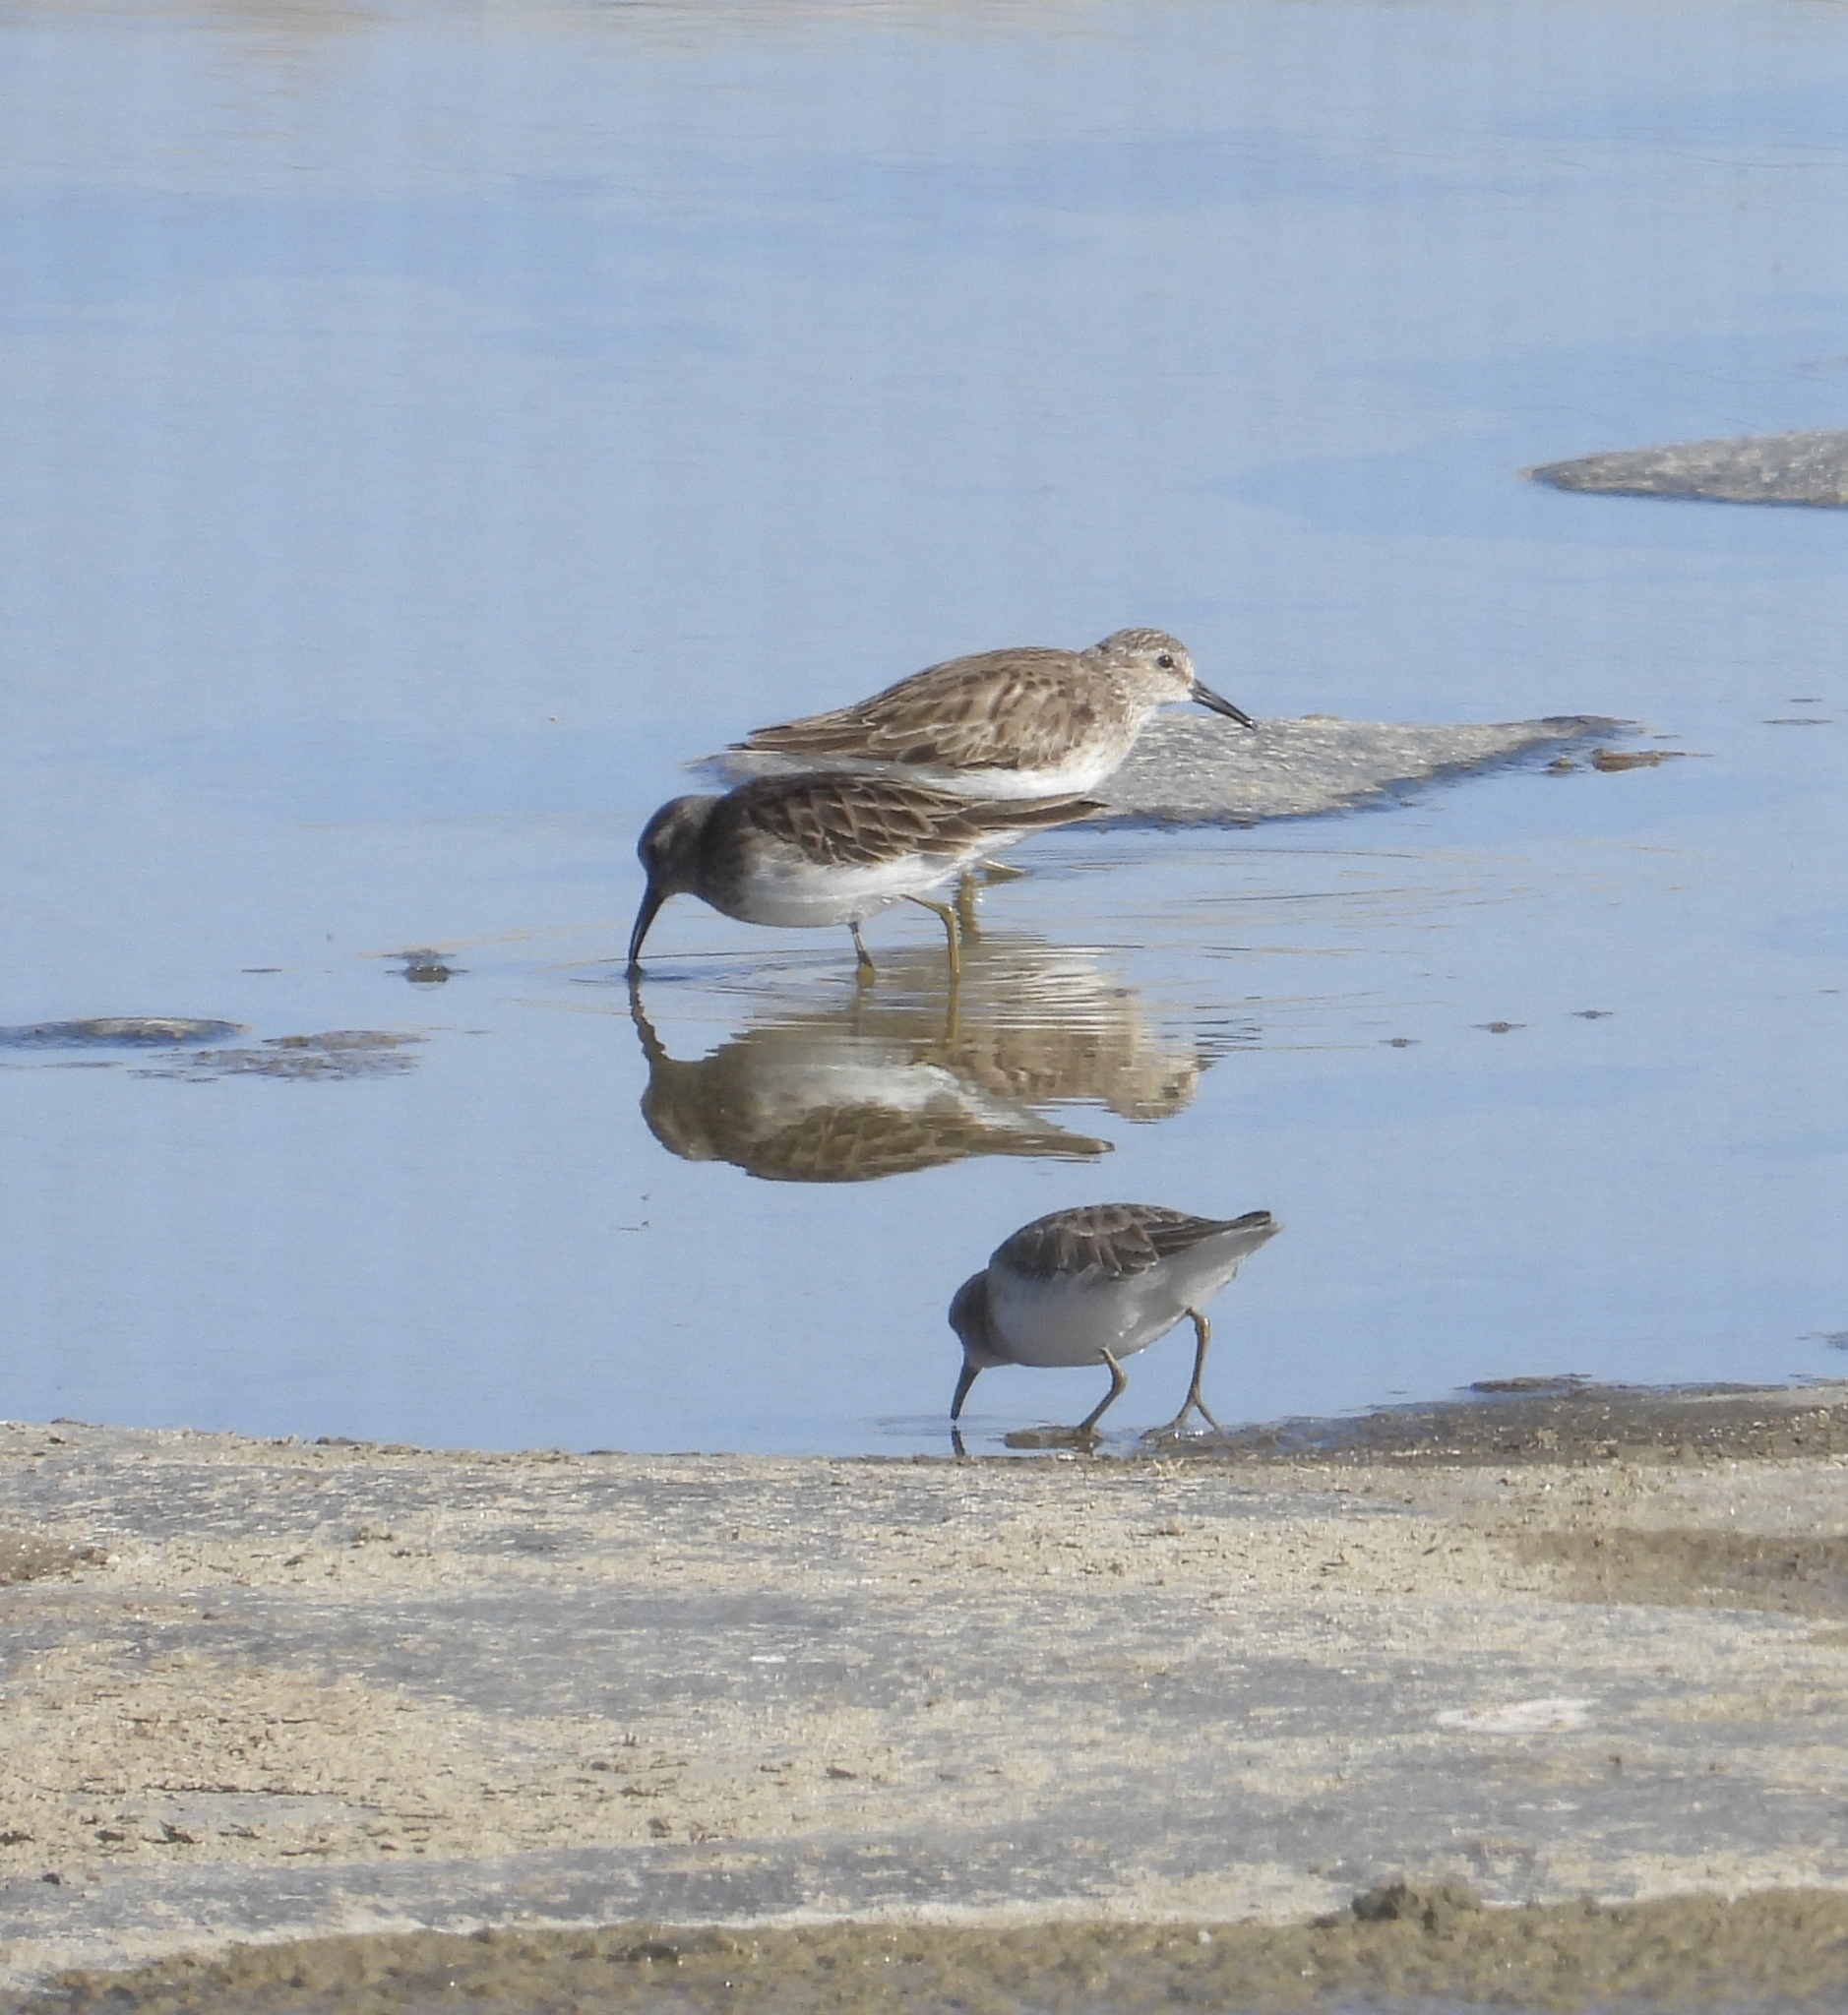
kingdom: Animalia
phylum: Chordata
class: Aves
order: Charadriiformes
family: Scolopacidae
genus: Calidris
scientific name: Calidris minutilla
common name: Least sandpiper
